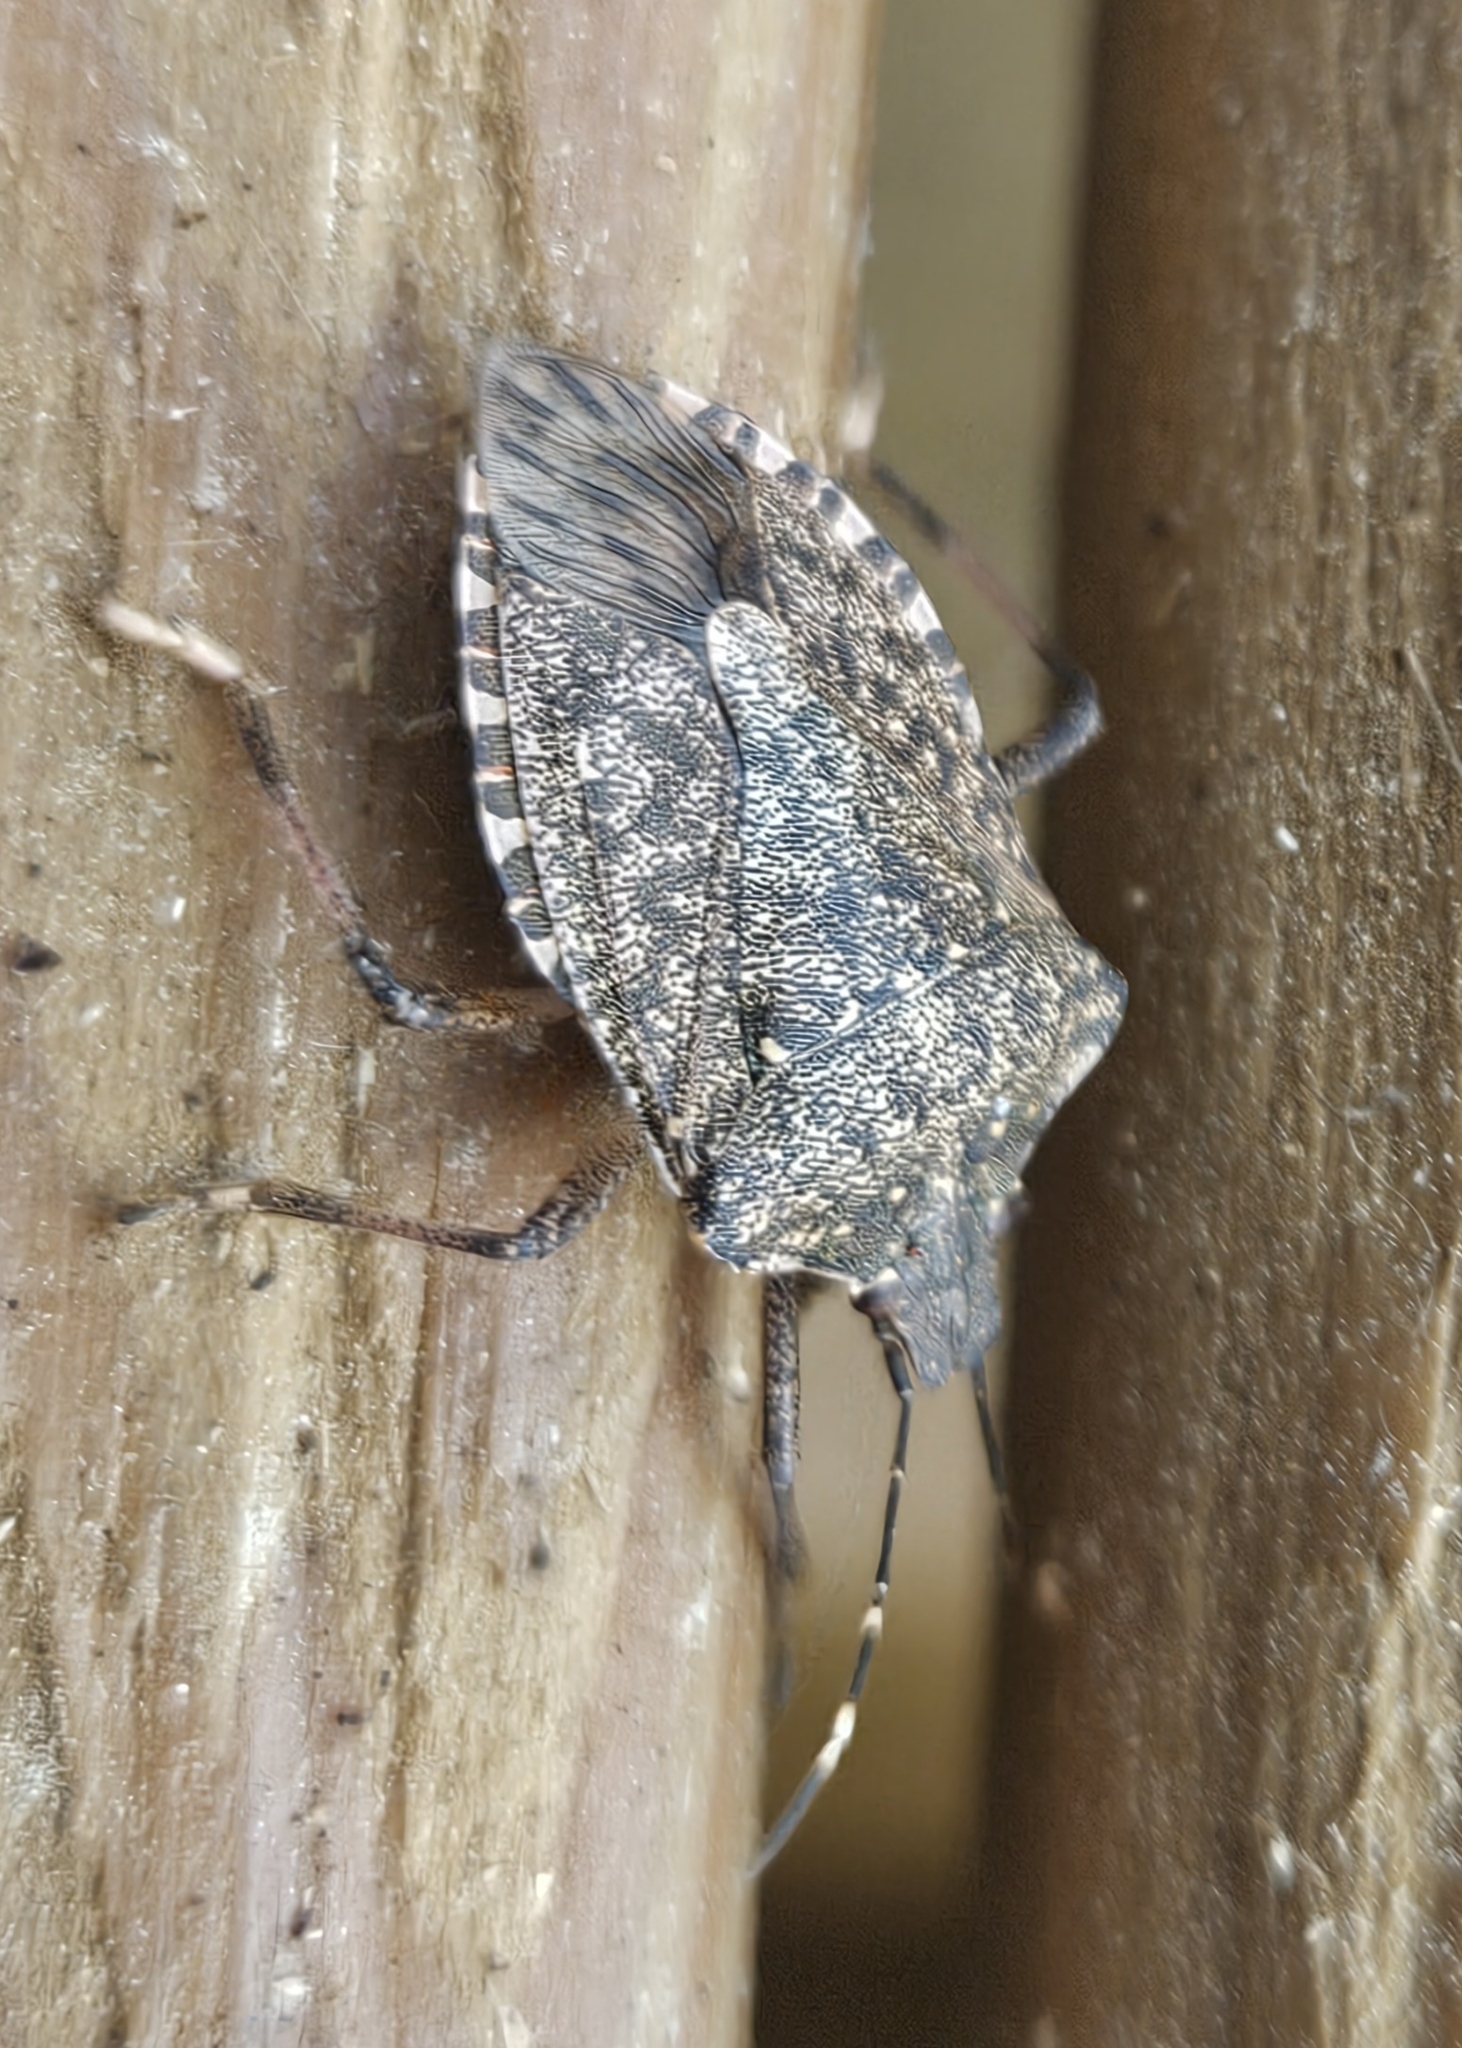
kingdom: Animalia
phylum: Arthropoda
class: Insecta
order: Hemiptera
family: Pentatomidae
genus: Halyomorpha
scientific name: Halyomorpha halys
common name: Brown marmorated stink bug
